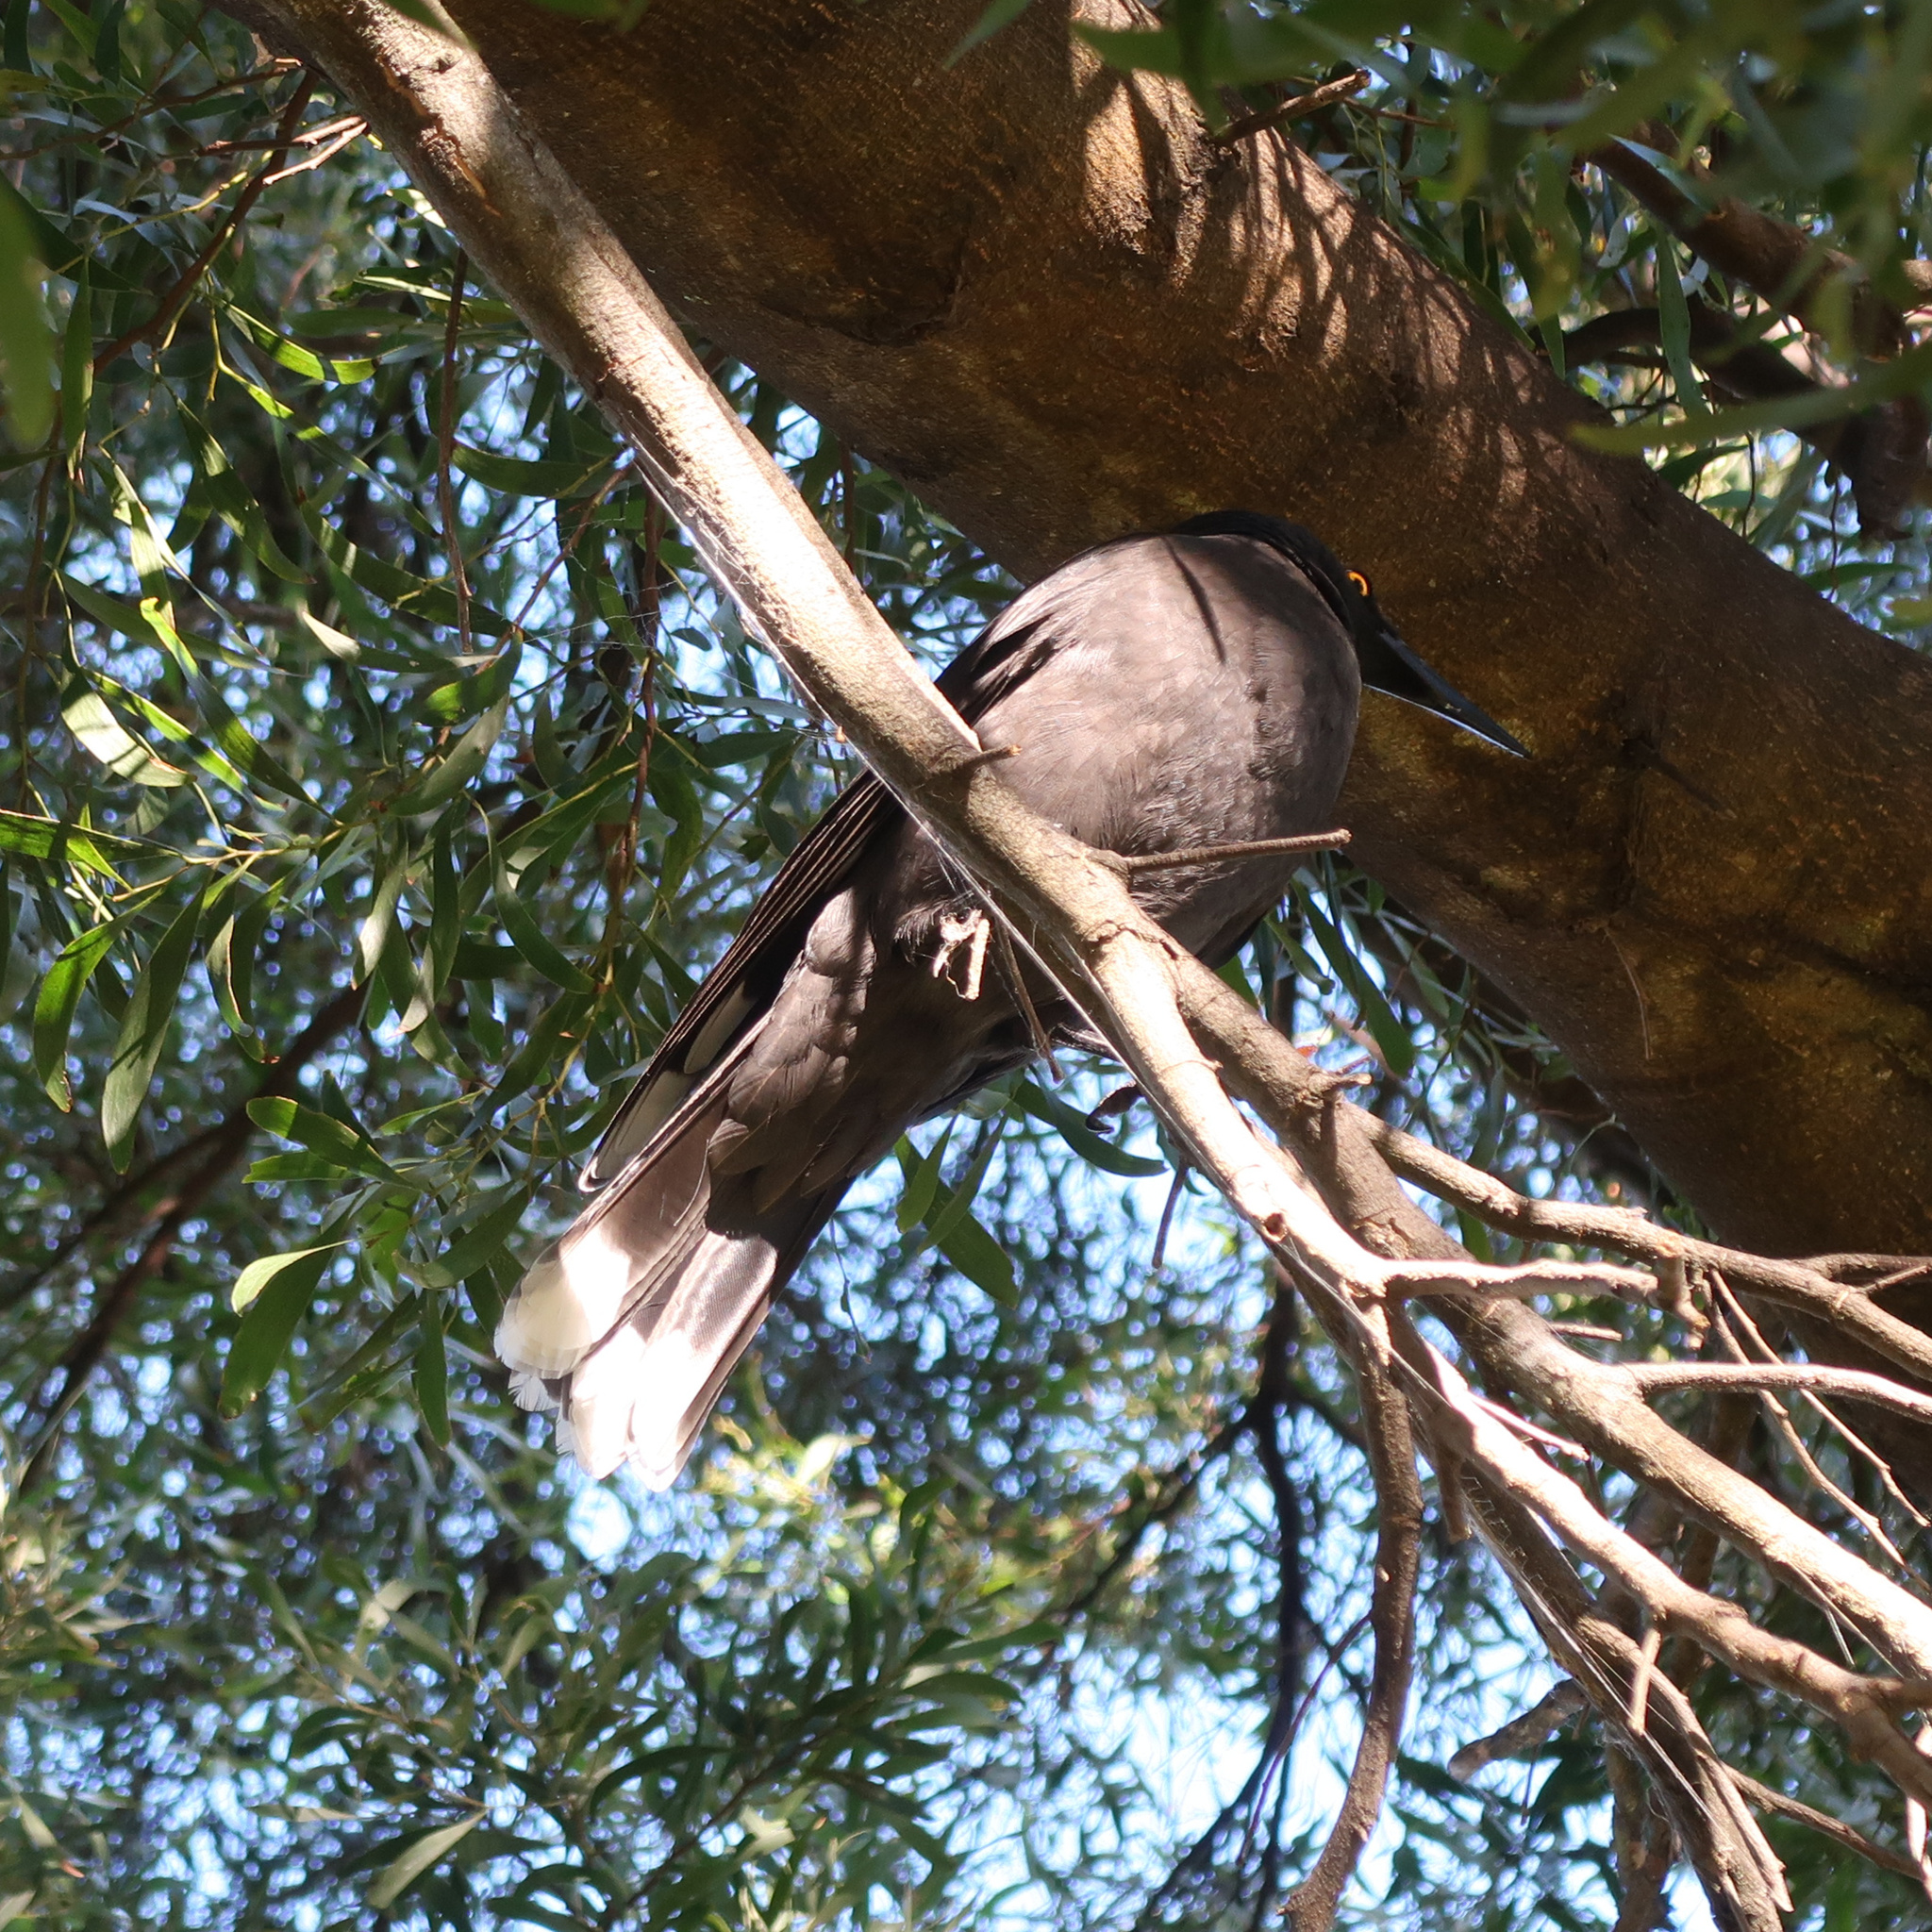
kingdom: Animalia
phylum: Chordata
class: Aves
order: Passeriformes
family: Cracticidae
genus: Strepera
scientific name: Strepera fuliginosa
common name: Black currawong
